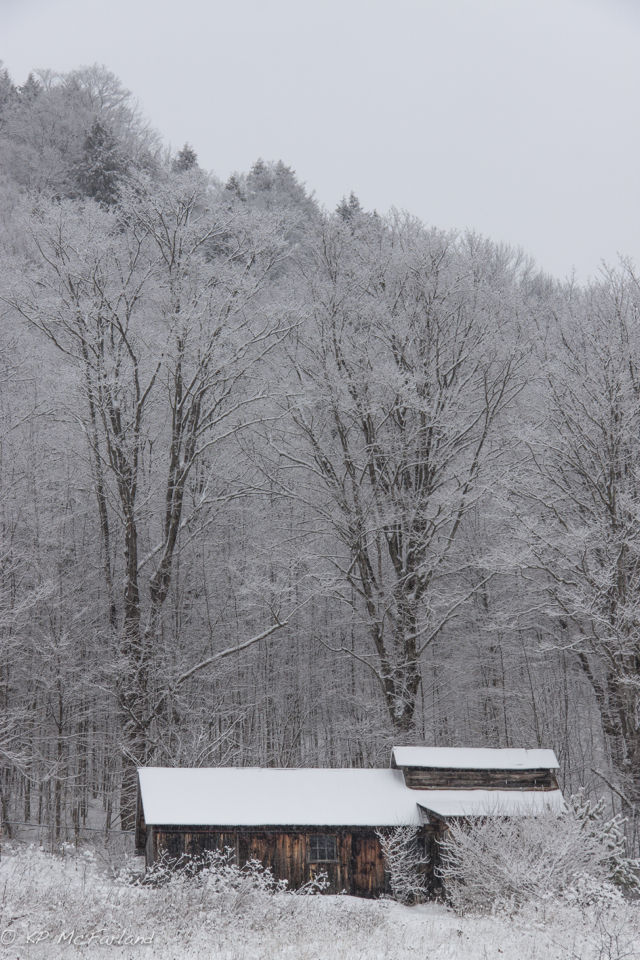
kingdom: Plantae
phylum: Tracheophyta
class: Magnoliopsida
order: Sapindales
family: Sapindaceae
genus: Acer
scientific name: Acer saccharum
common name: Sugar maple
